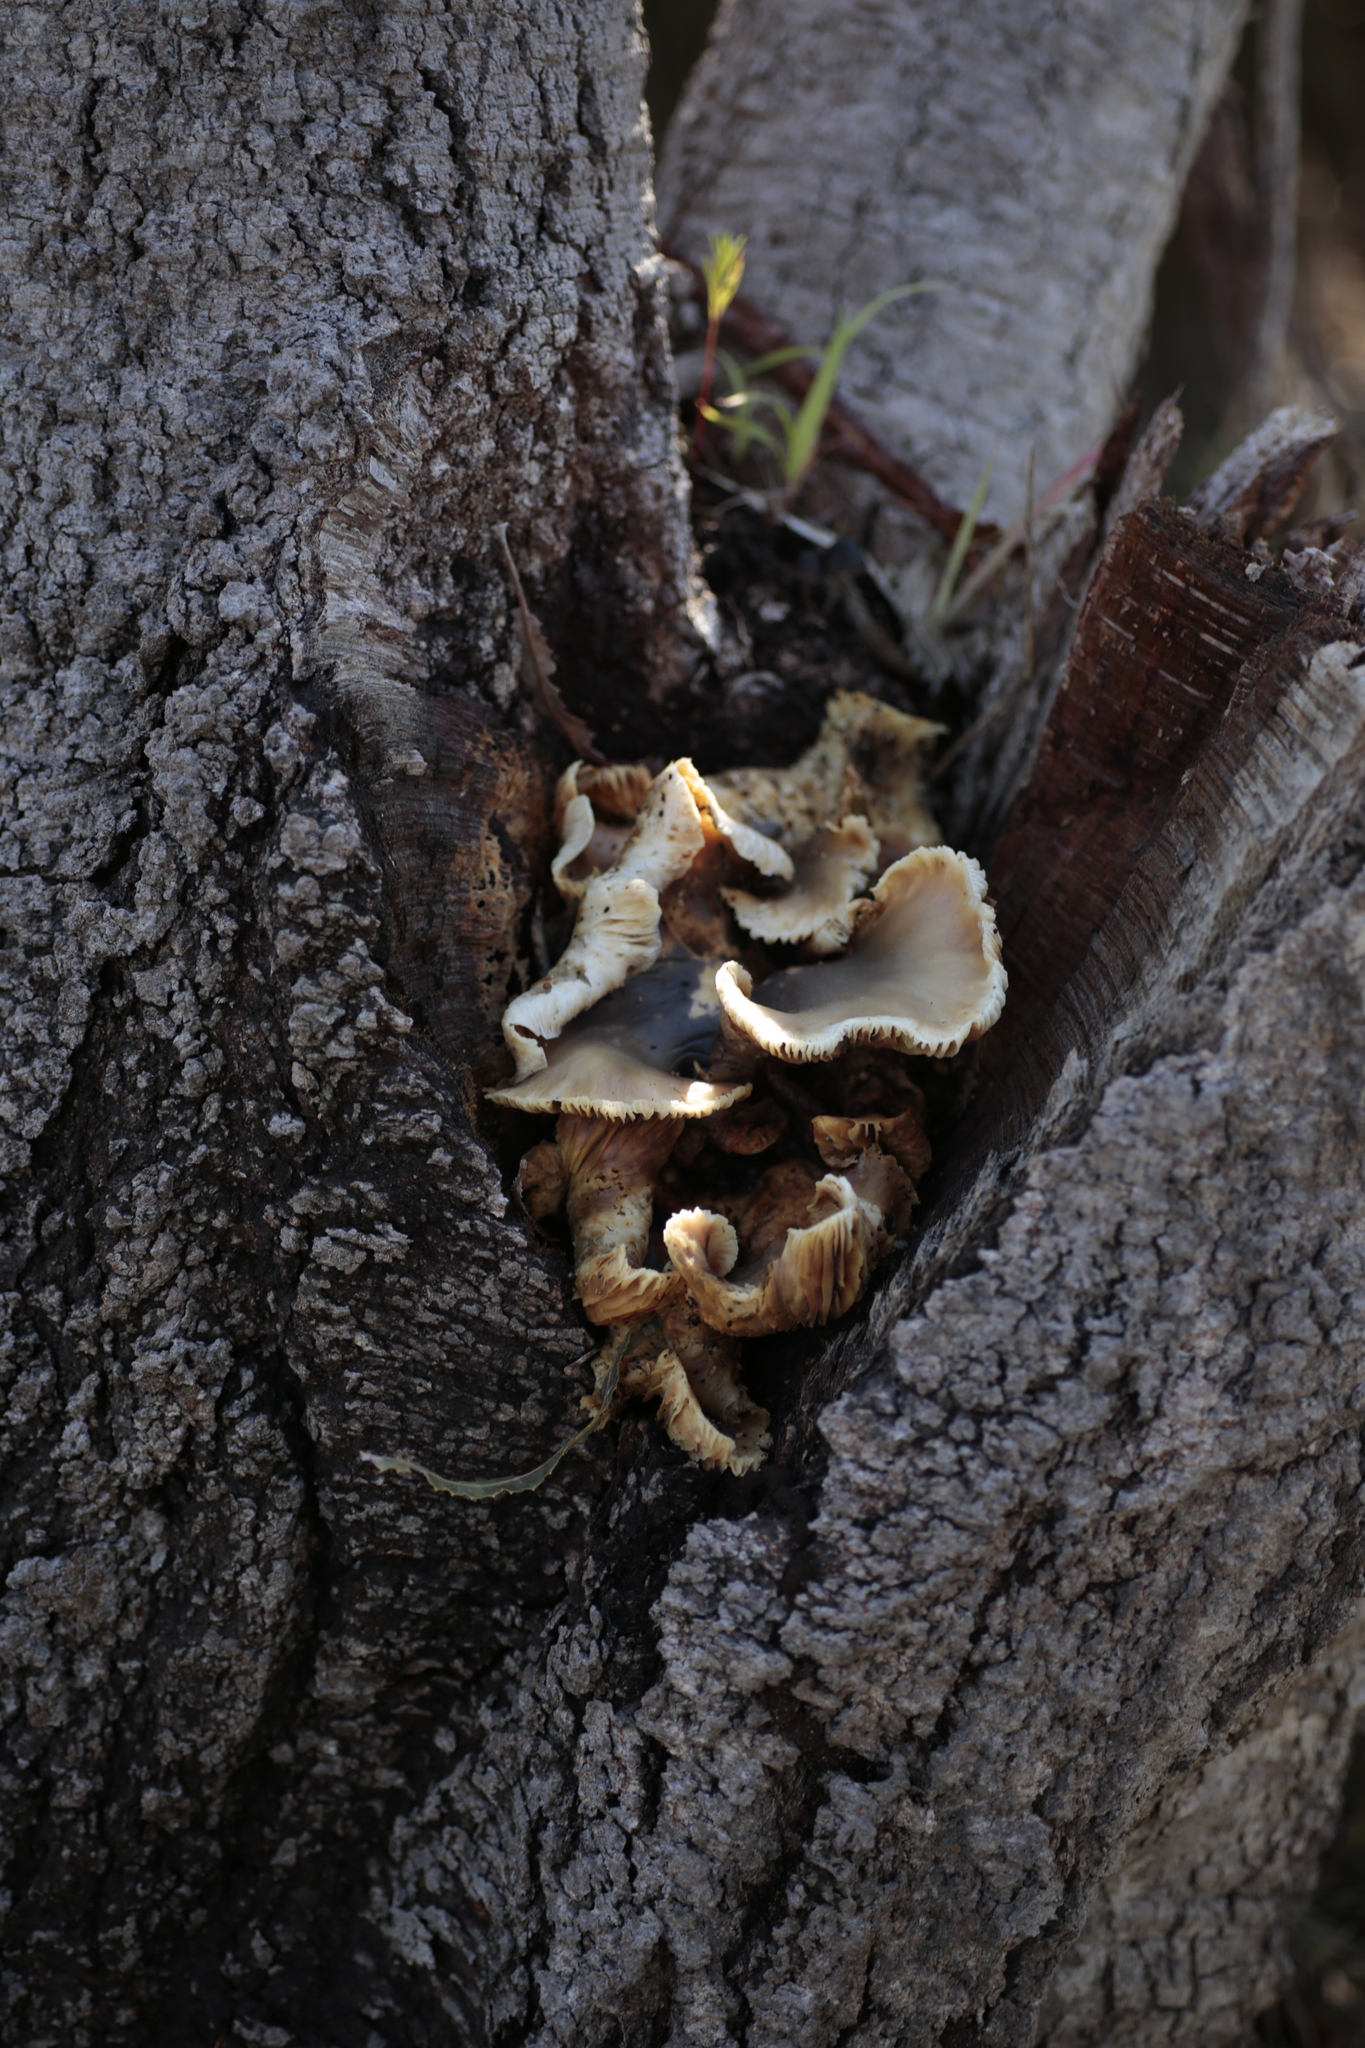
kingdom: Fungi
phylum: Basidiomycota
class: Agaricomycetes
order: Agaricales
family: Omphalotaceae
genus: Omphalotus
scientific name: Omphalotus nidiformis
